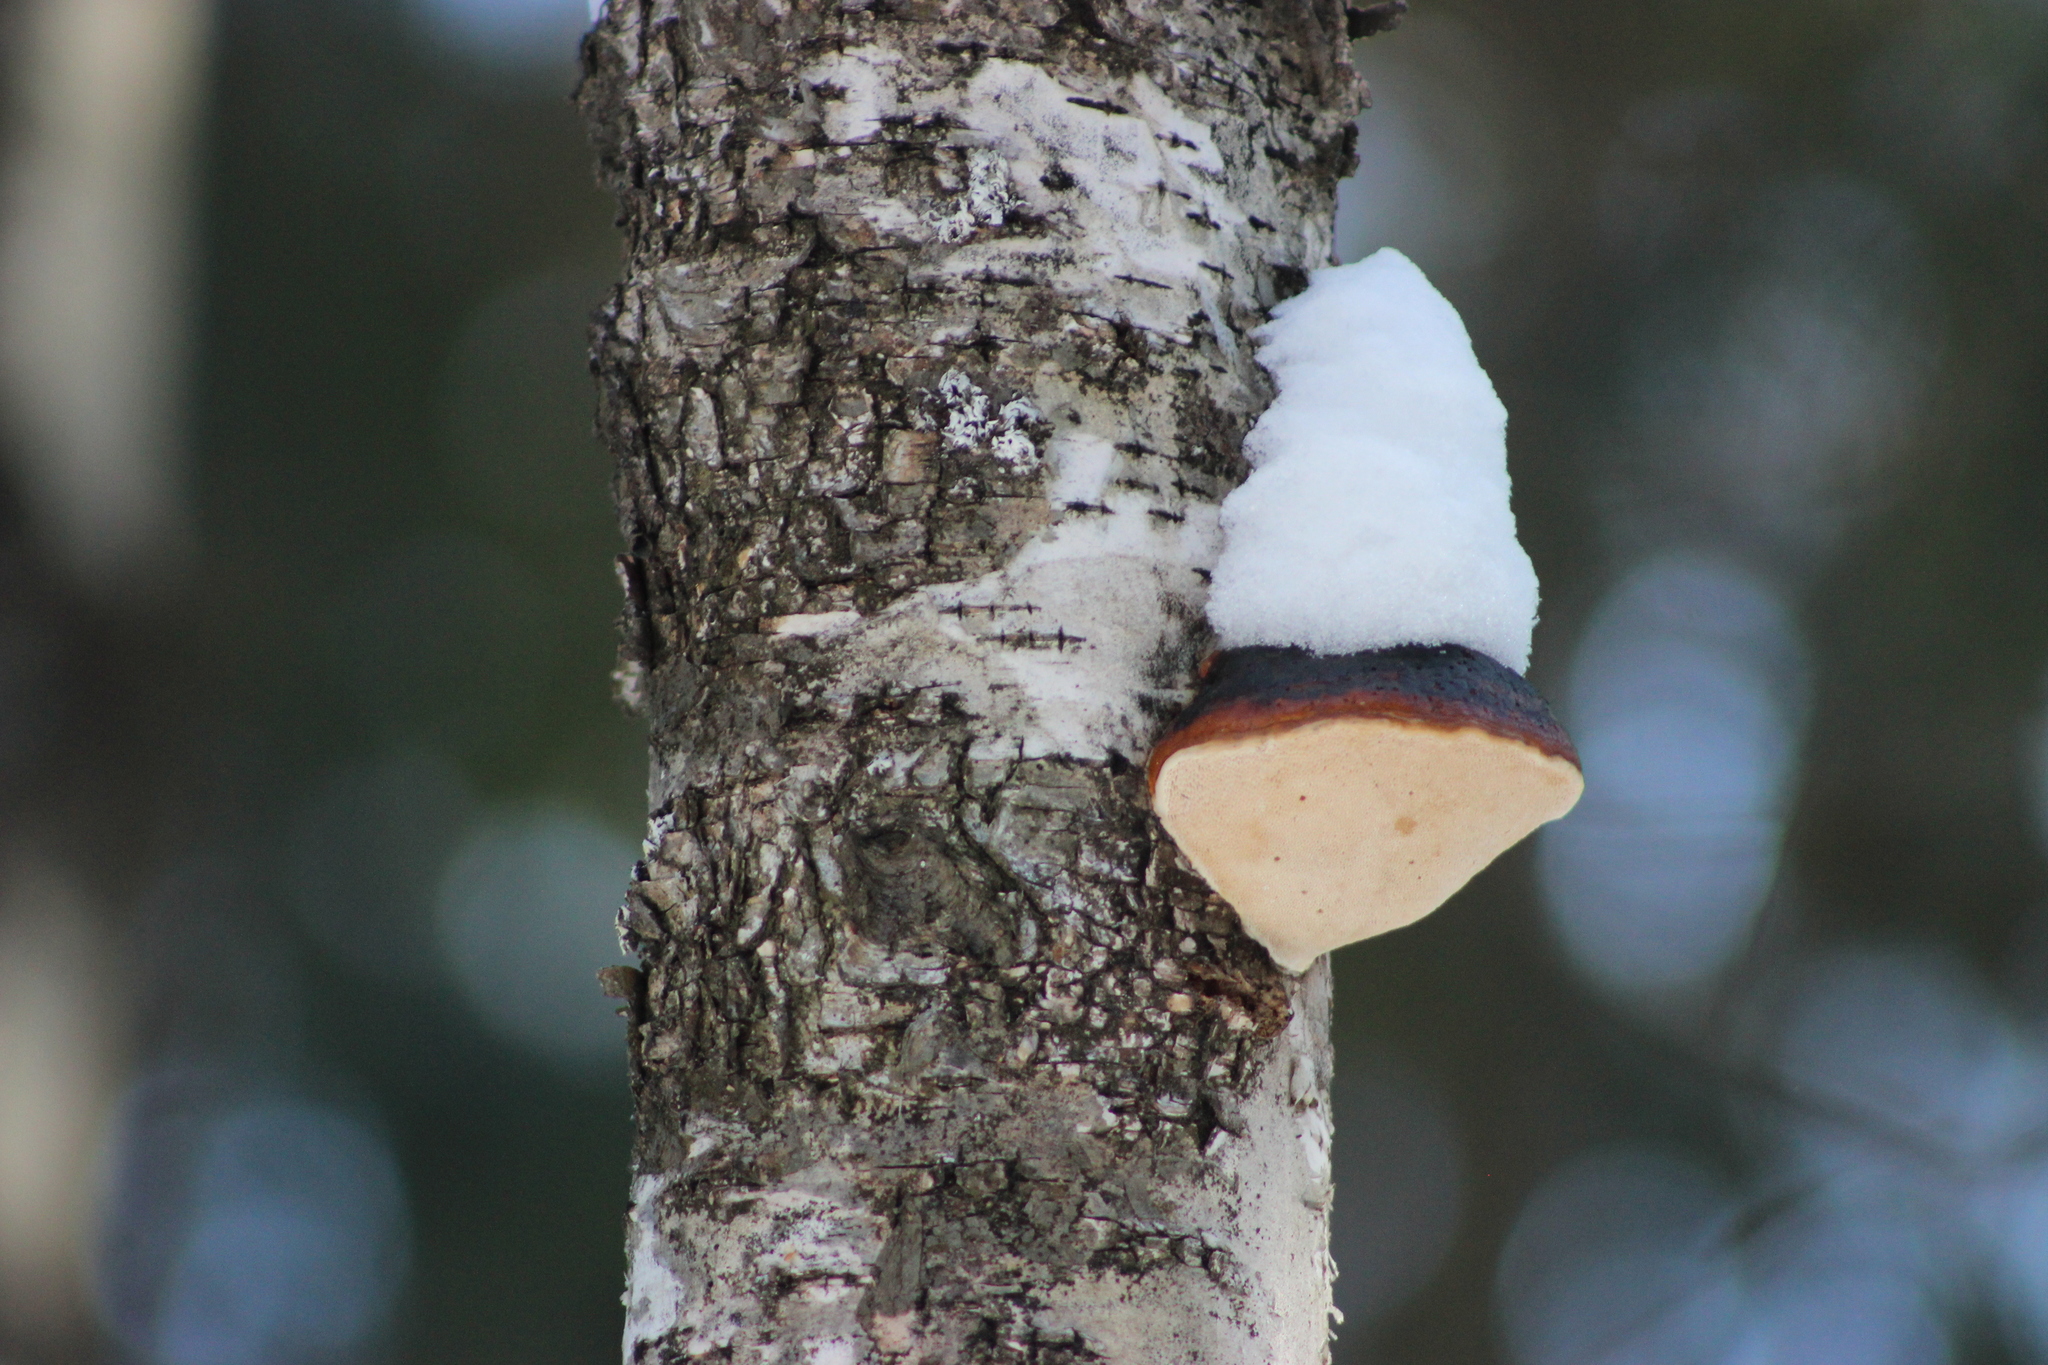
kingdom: Fungi
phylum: Basidiomycota
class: Agaricomycetes
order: Polyporales
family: Fomitopsidaceae
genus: Fomitopsis
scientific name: Fomitopsis pinicola
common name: Red-belted bracket
